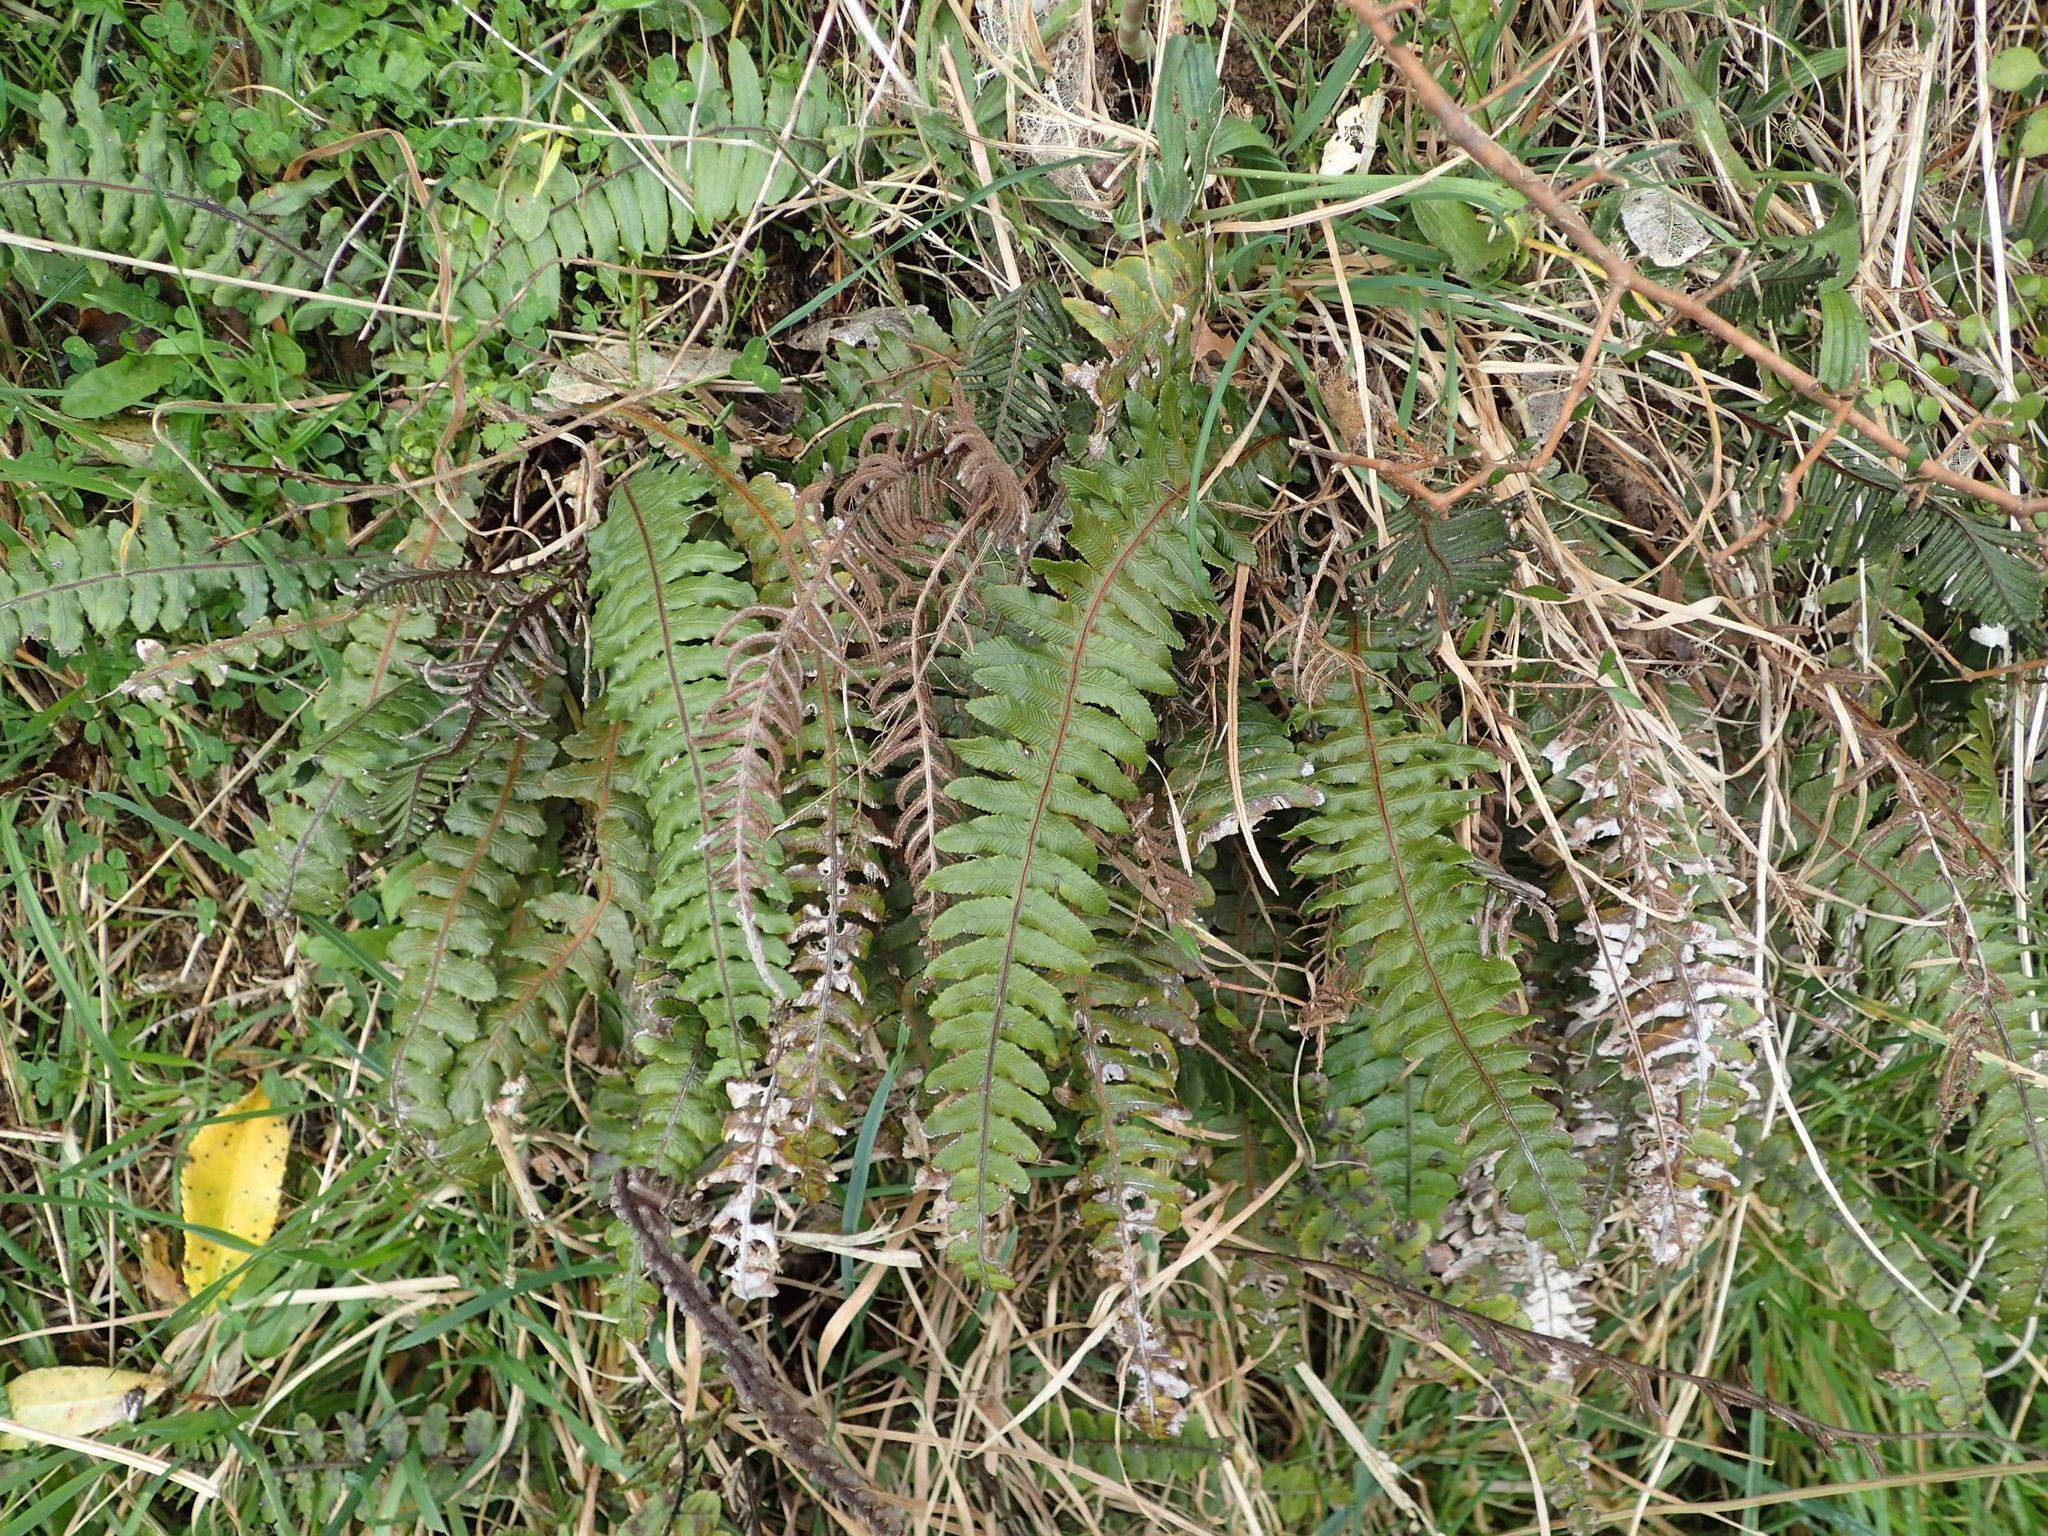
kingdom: Plantae
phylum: Tracheophyta
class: Polypodiopsida
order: Polypodiales
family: Blechnaceae
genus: Austroblechnum
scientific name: Austroblechnum lanceolatum
